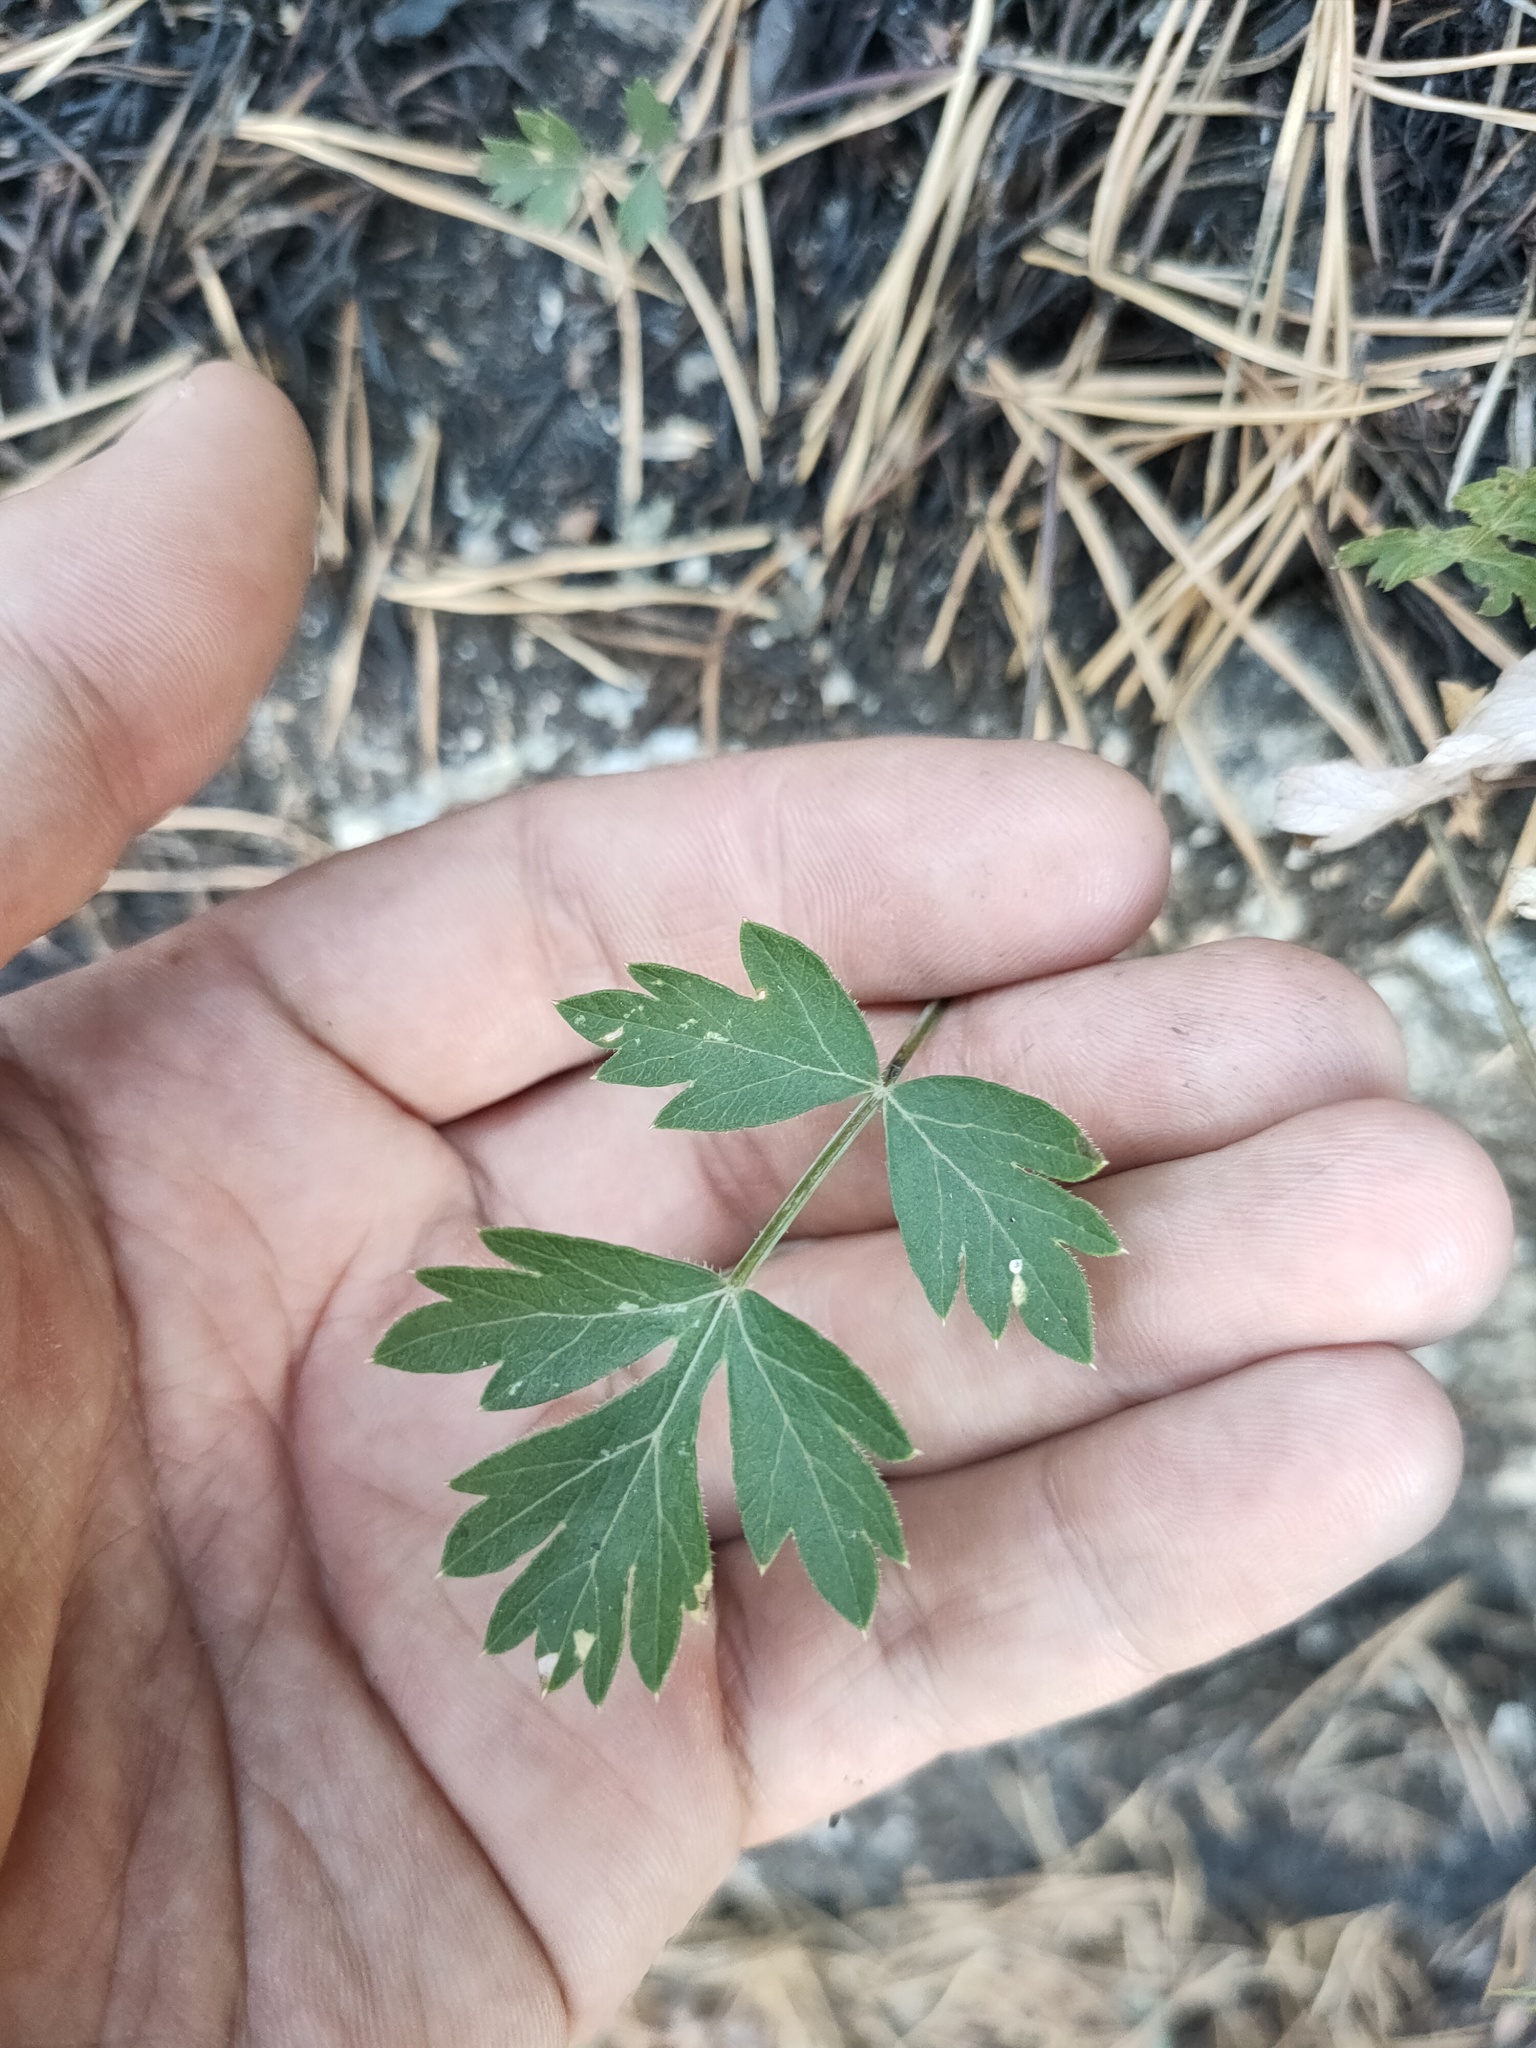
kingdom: Plantae
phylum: Tracheophyta
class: Magnoliopsida
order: Apiales
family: Apiaceae
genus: Pimpinella
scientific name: Pimpinella saxifraga
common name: Burnet-saxifrage
